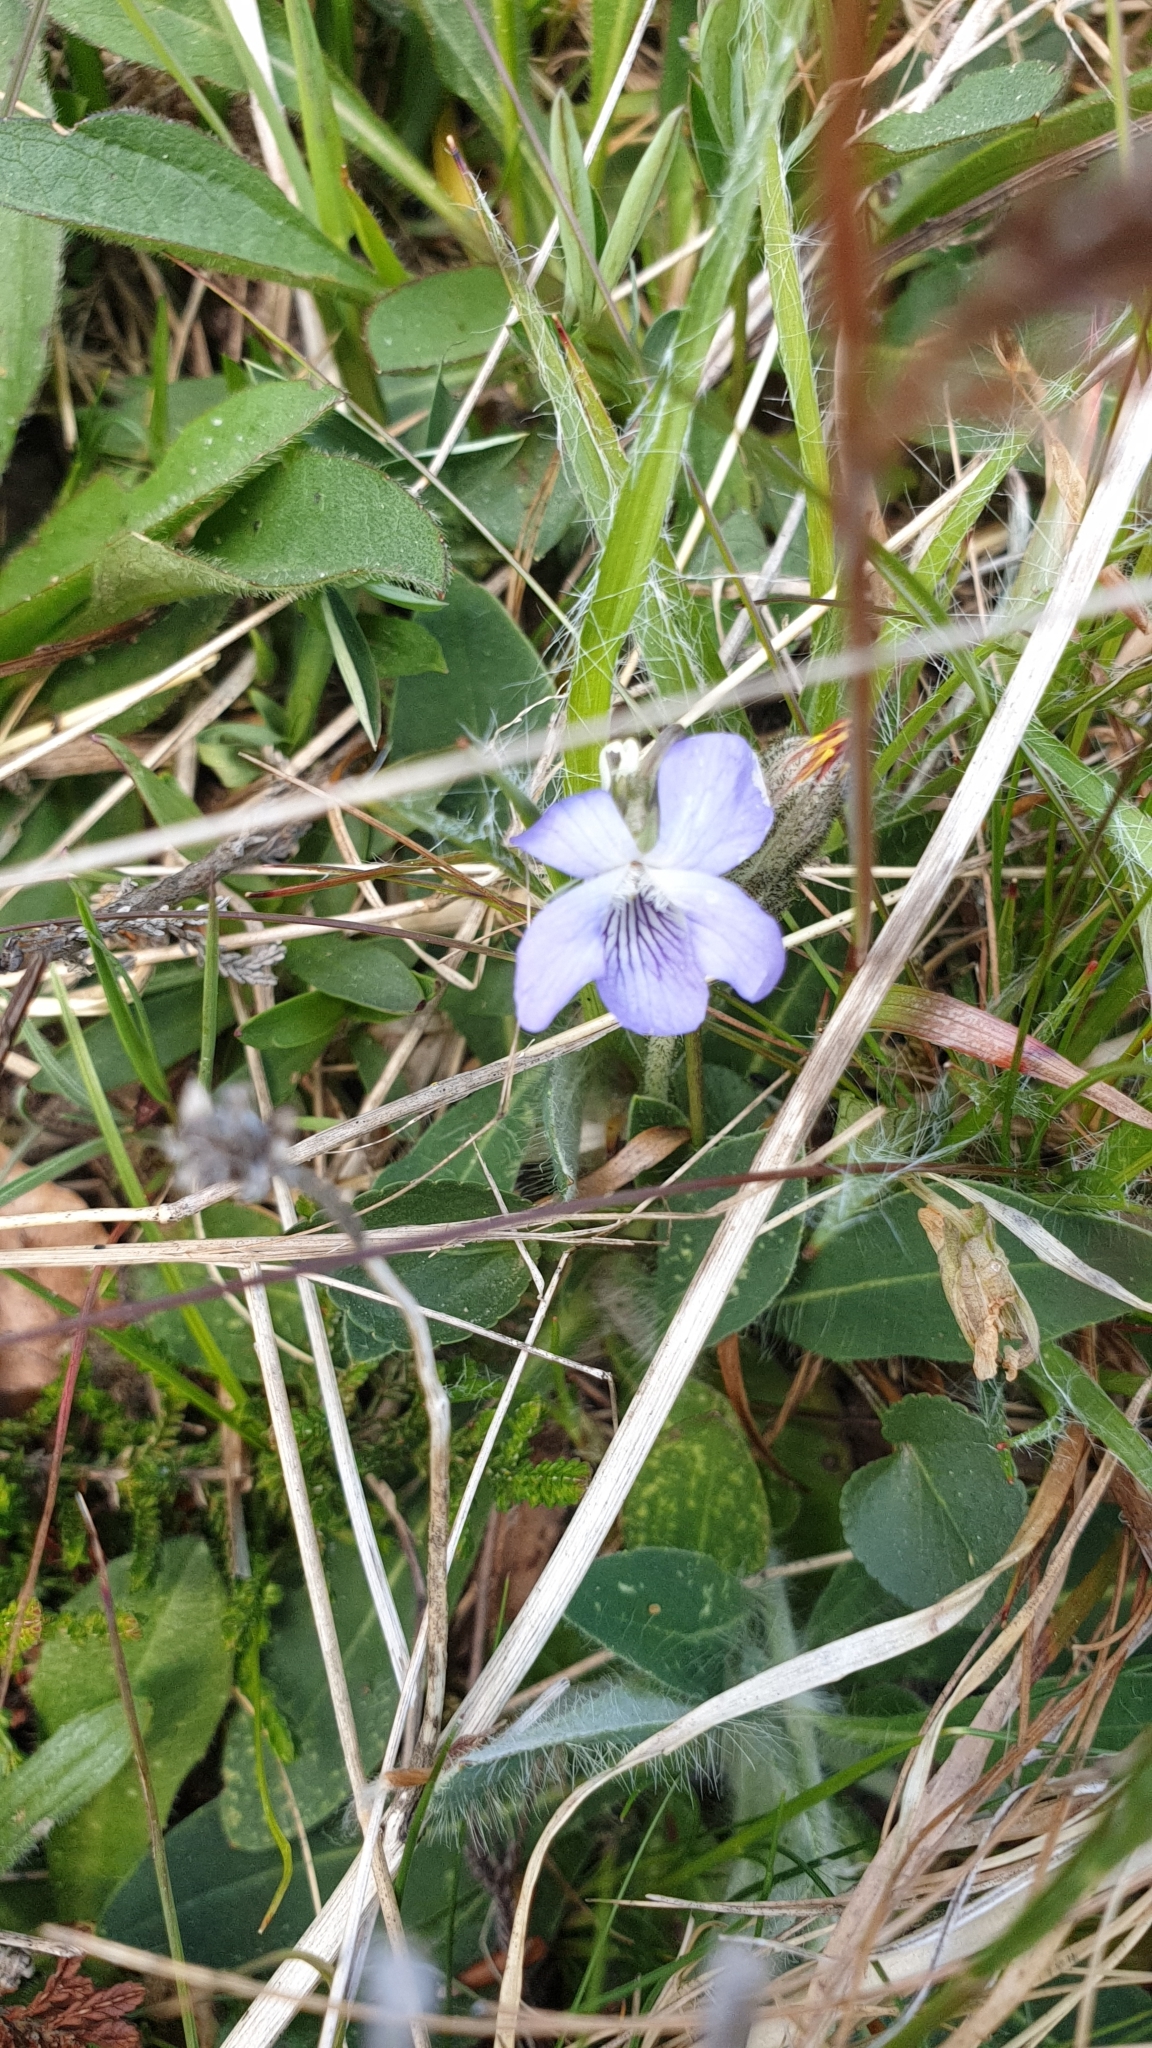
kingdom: Plantae
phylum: Tracheophyta
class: Magnoliopsida
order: Malpighiales
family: Violaceae
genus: Viola
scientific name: Viola canina
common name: Heath dog-violet
